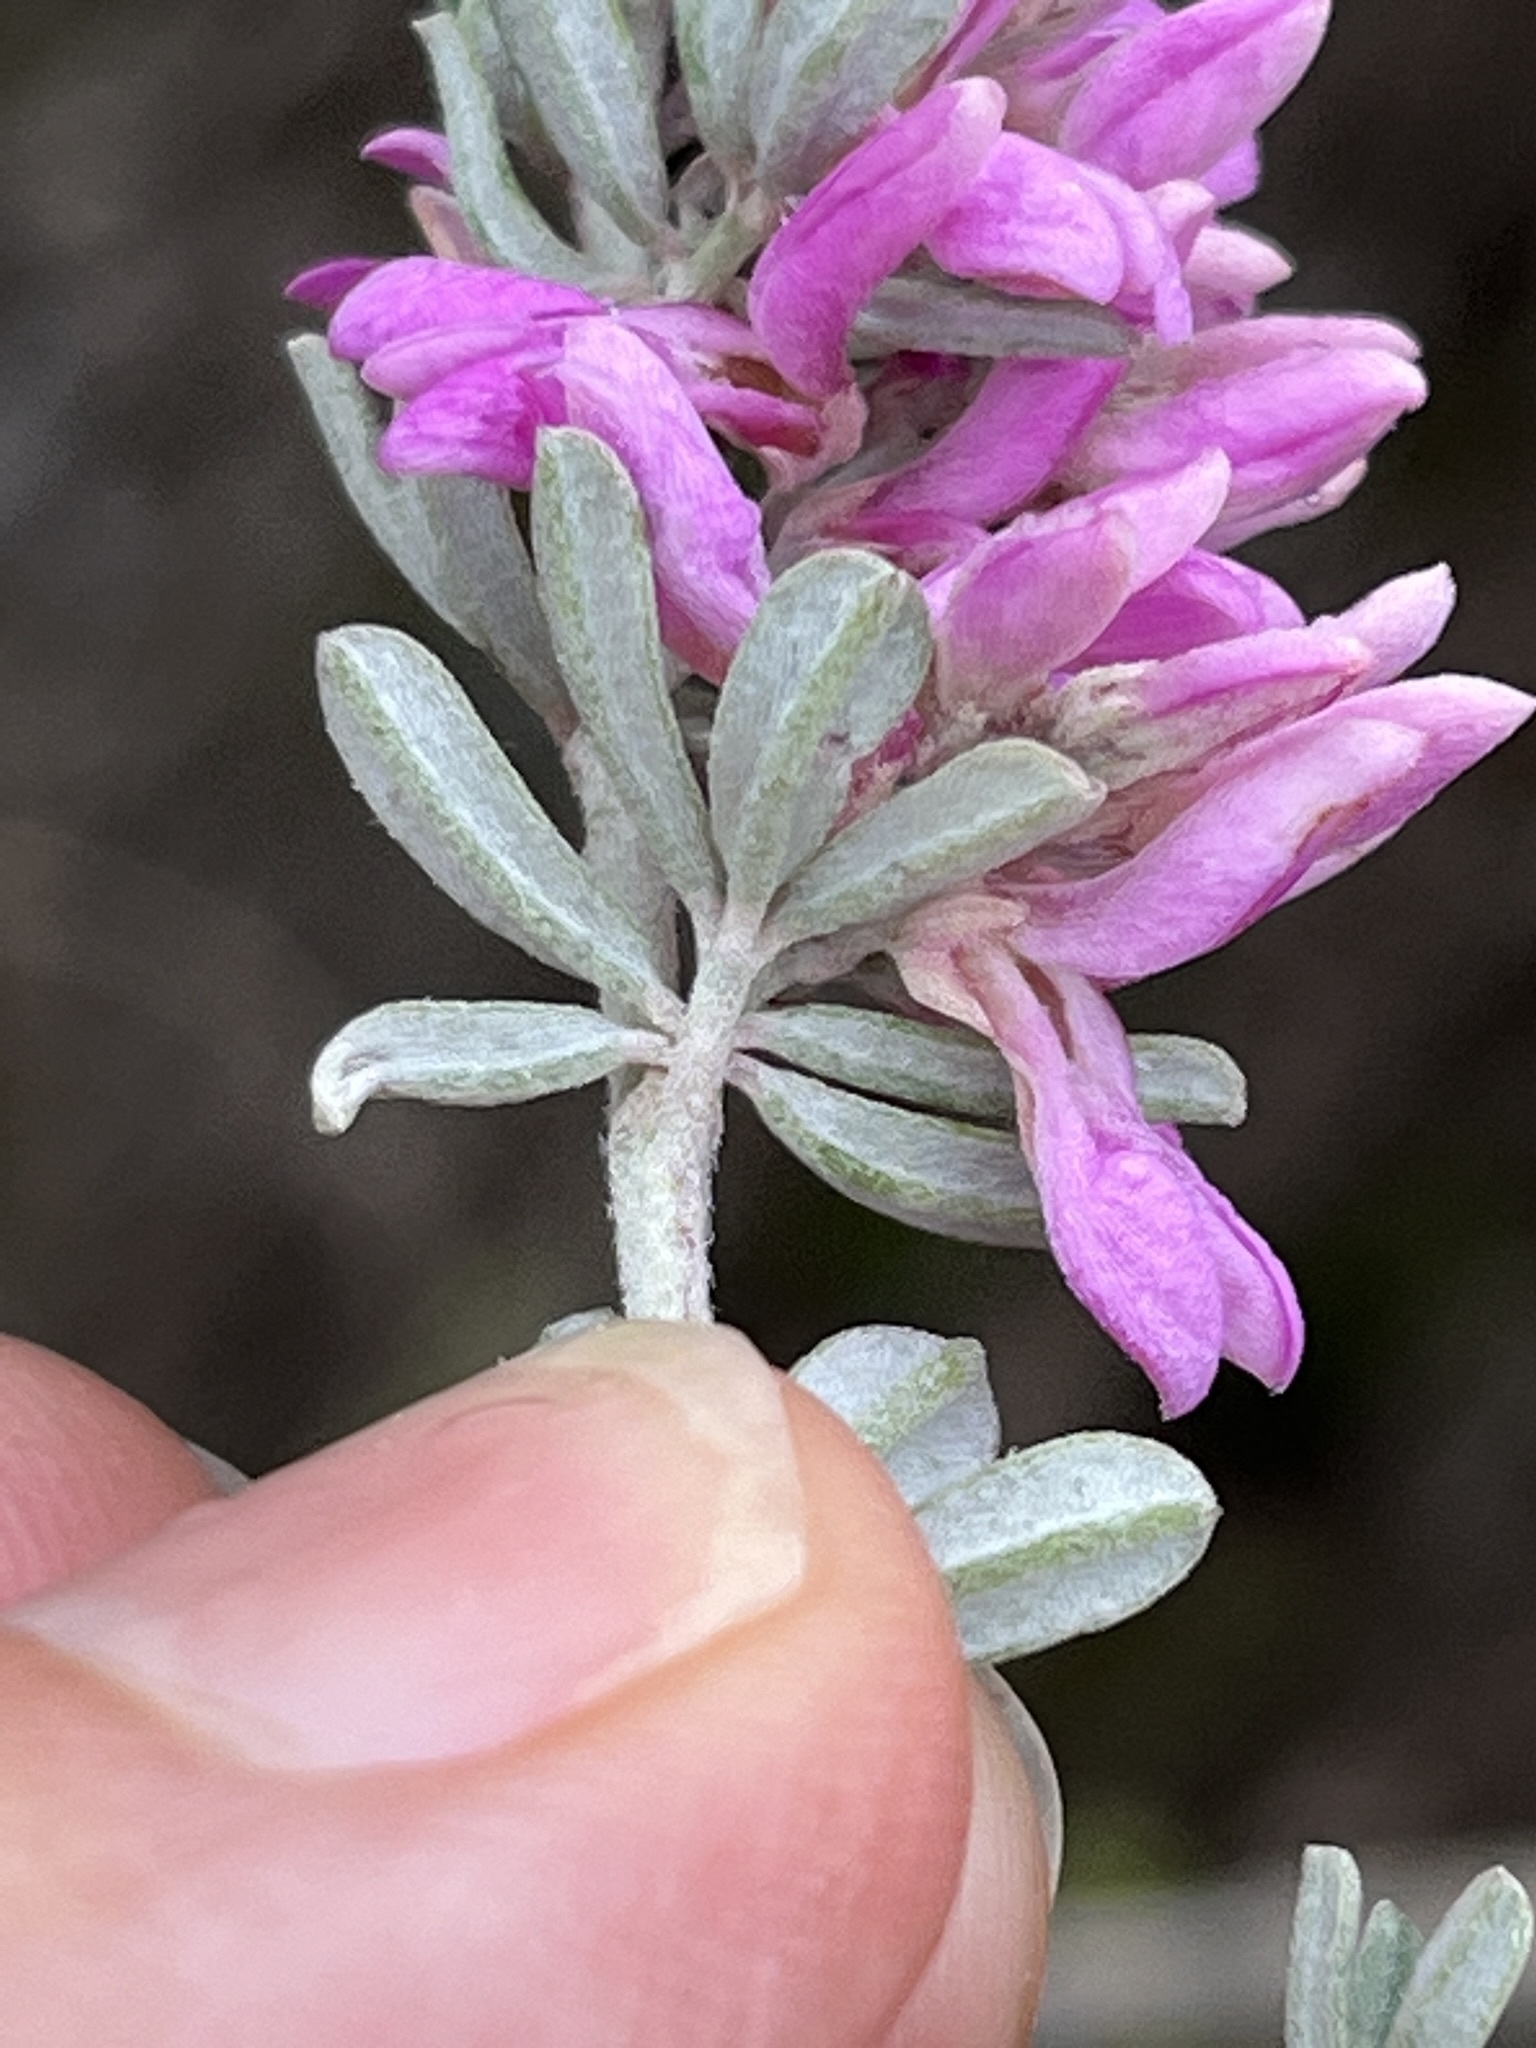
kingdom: Plantae
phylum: Tracheophyta
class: Magnoliopsida
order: Fabales
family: Fabaceae
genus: Indigofera
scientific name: Indigofera brachystachya
